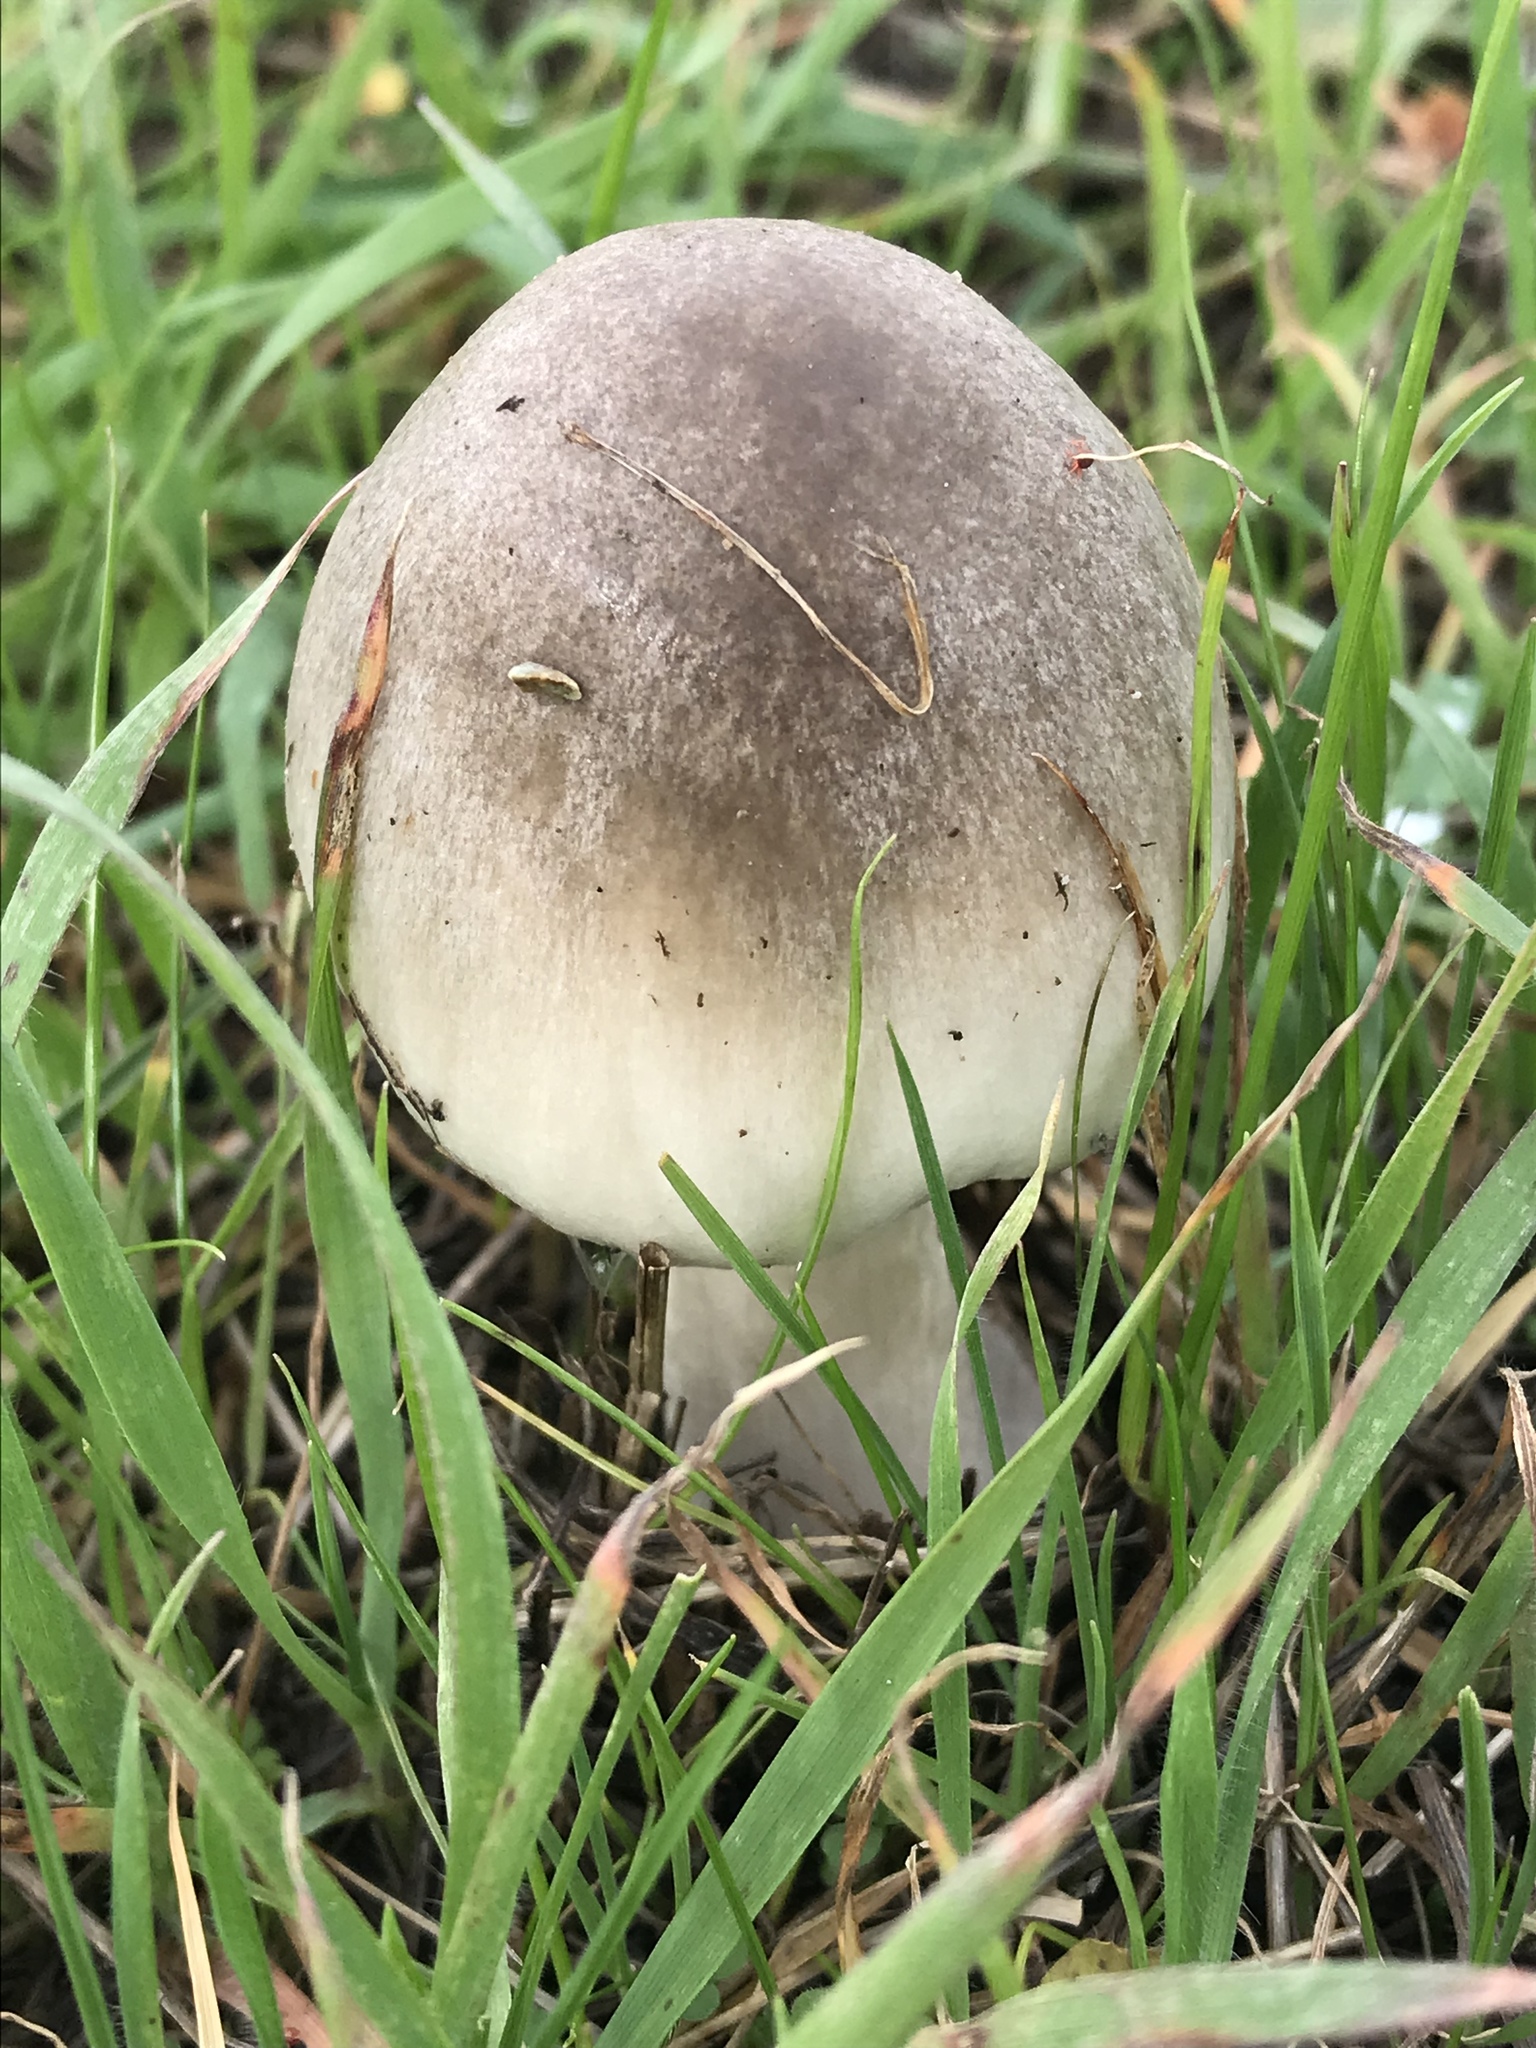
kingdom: Fungi
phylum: Basidiomycota
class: Agaricomycetes
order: Agaricales
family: Pluteaceae
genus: Volvopluteus
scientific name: Volvopluteus gloiocephalus
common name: Stubble rosegill
